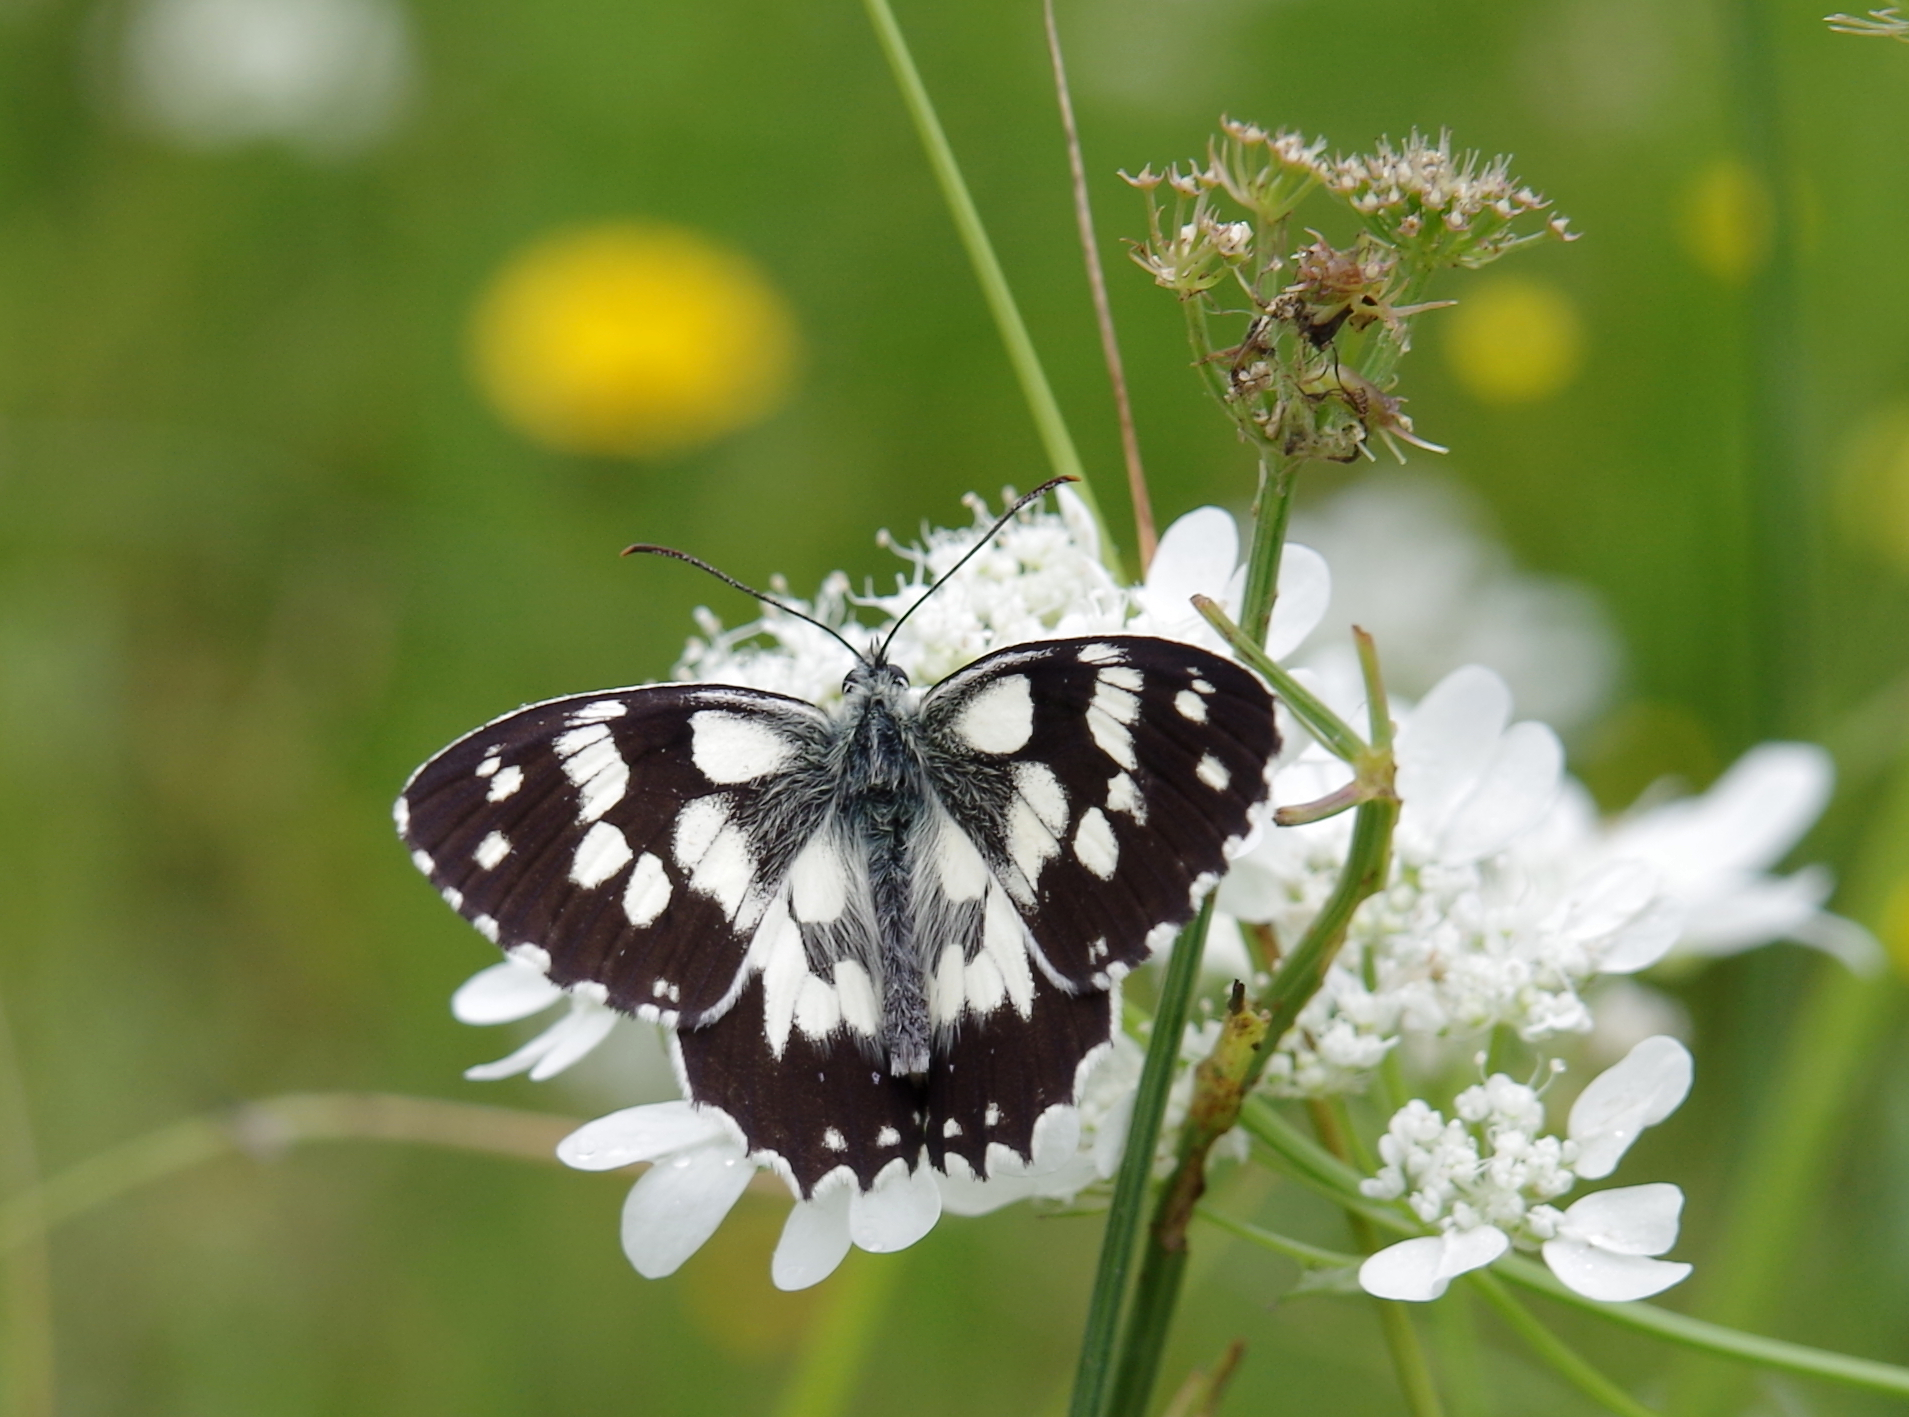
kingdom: Animalia
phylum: Arthropoda
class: Insecta
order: Lepidoptera
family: Nymphalidae
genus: Melanargia
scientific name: Melanargia galathea
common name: Marbled white
